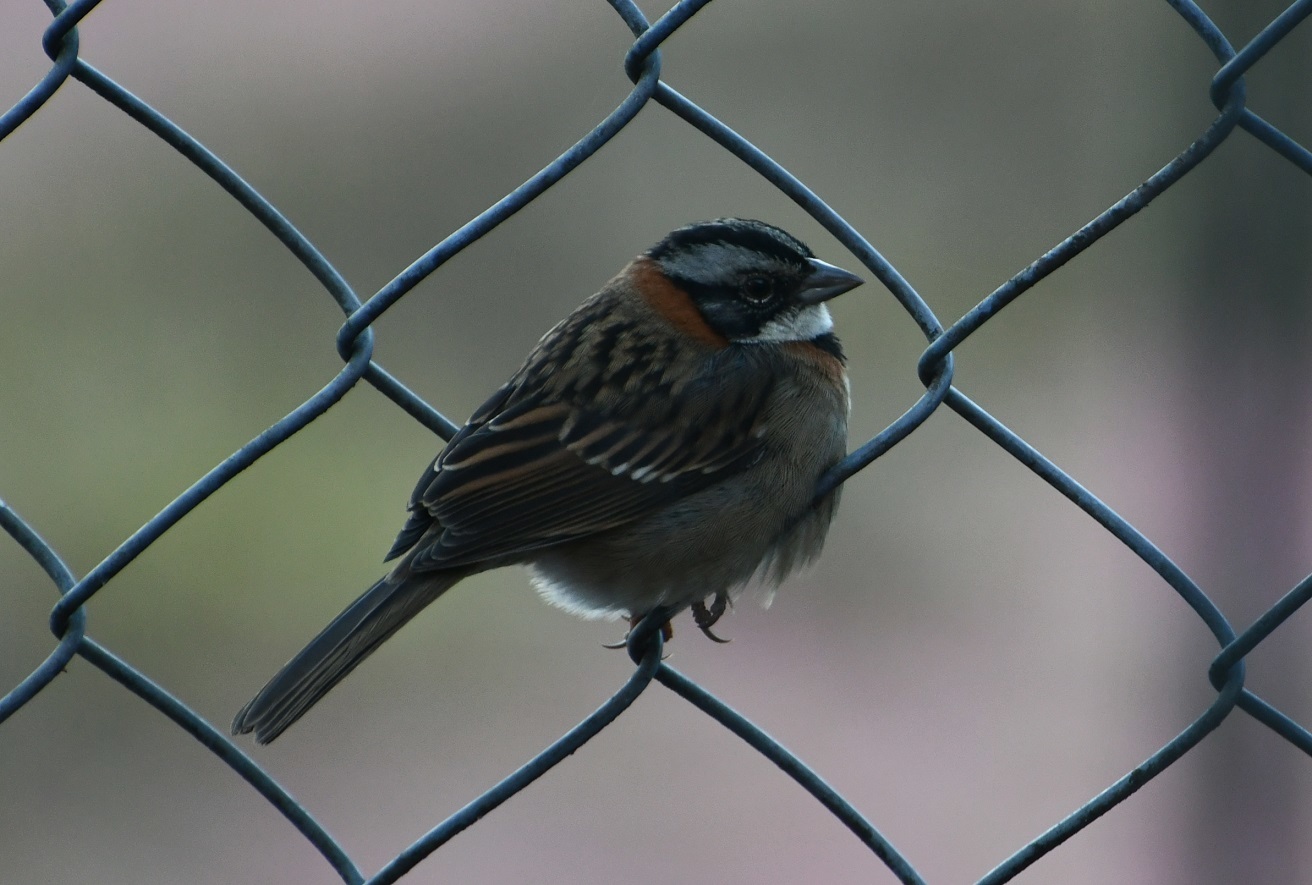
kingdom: Animalia
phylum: Chordata
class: Aves
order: Passeriformes
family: Passerellidae
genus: Zonotrichia
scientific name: Zonotrichia capensis
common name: Rufous-collared sparrow
